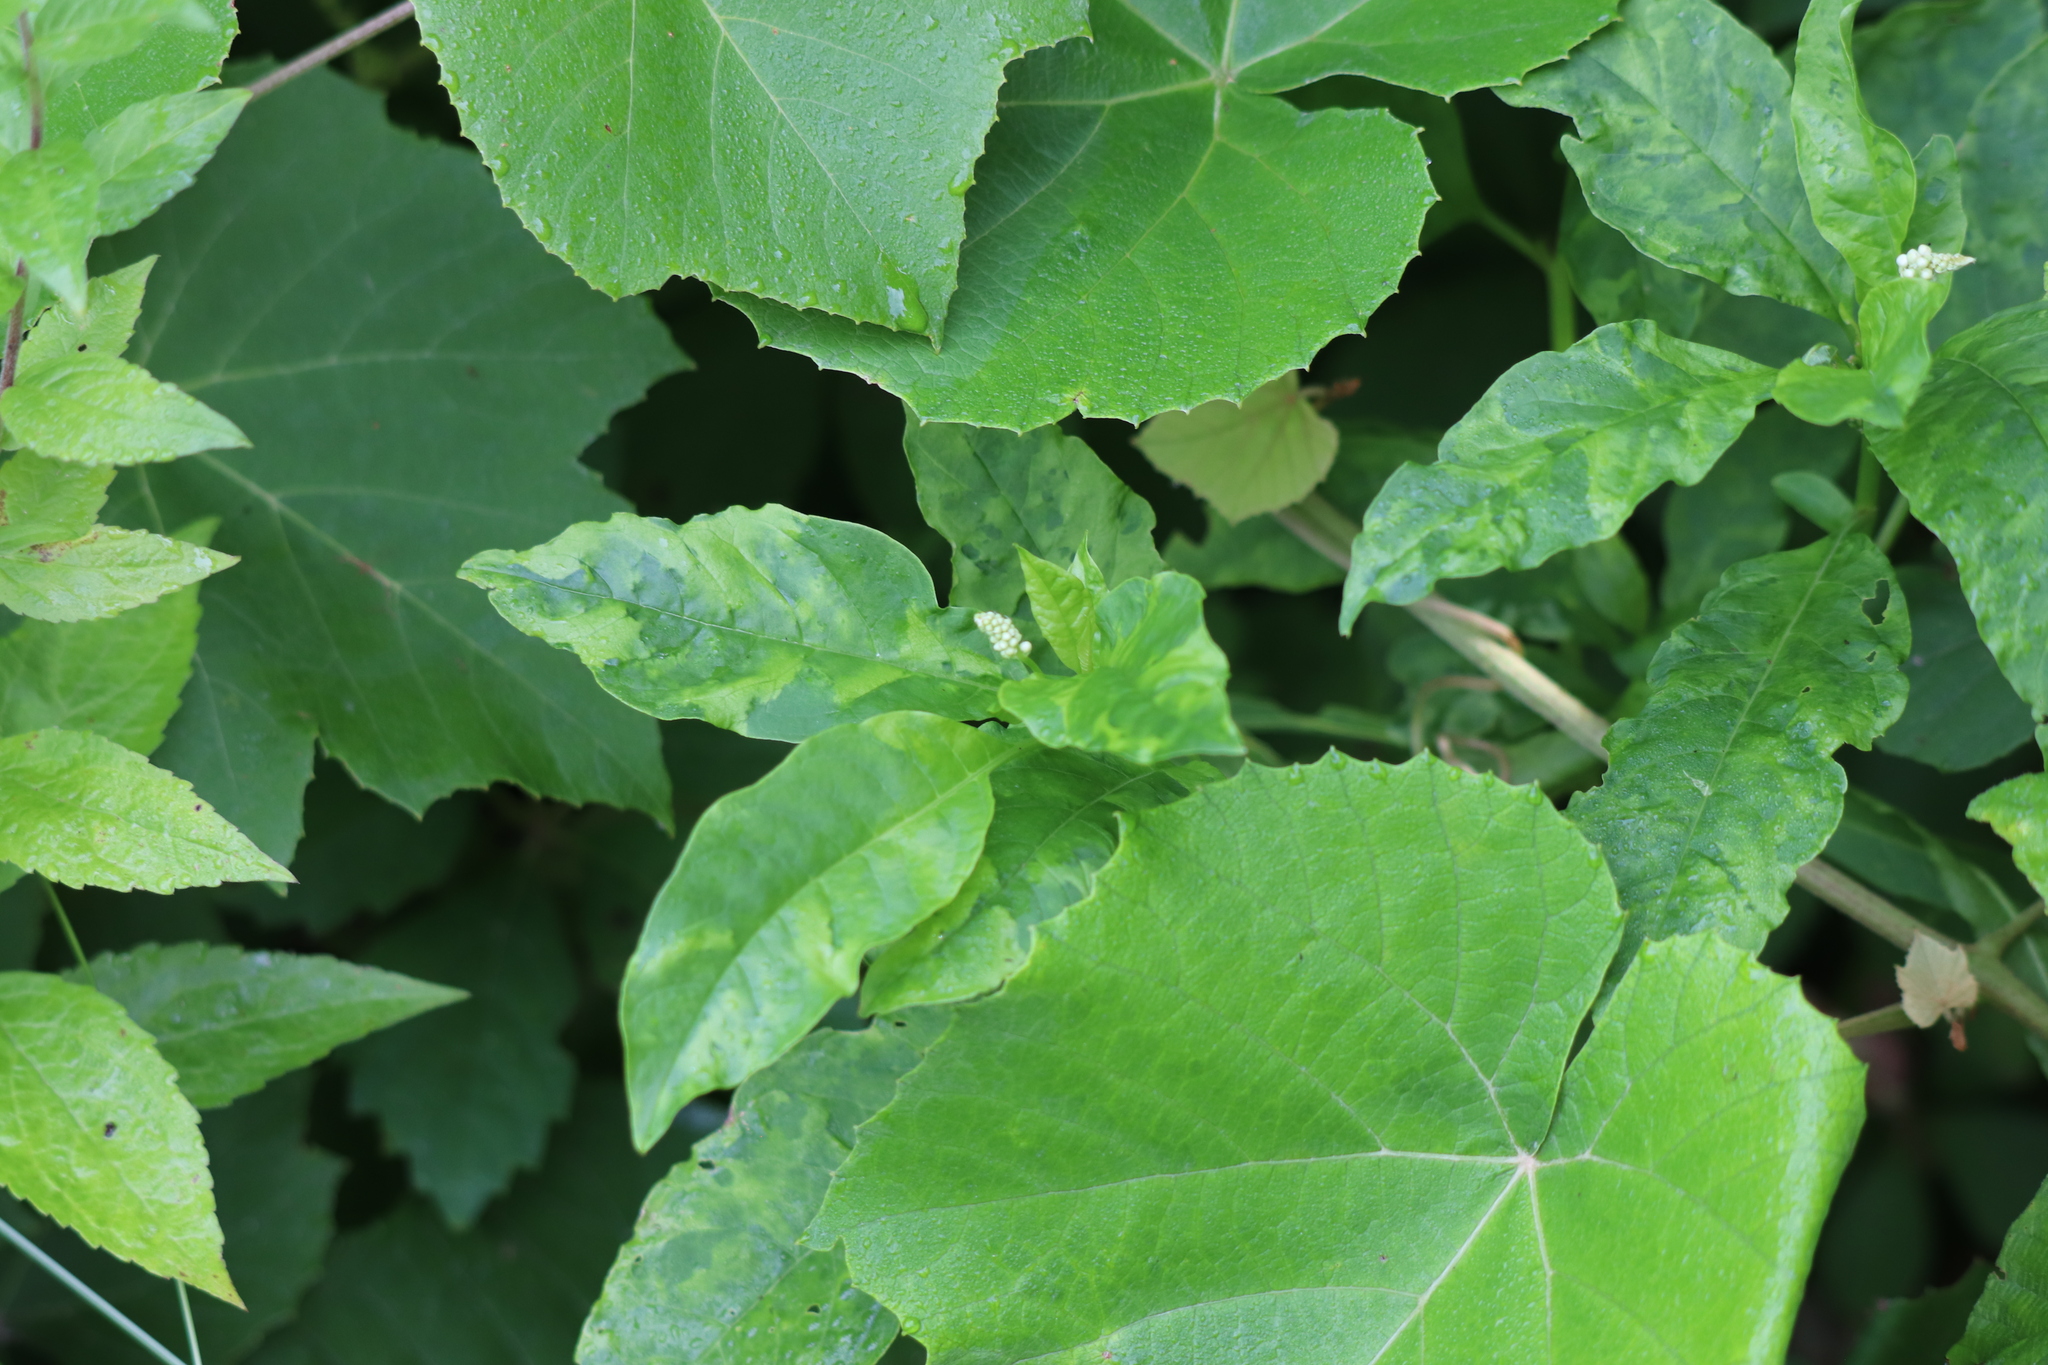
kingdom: Viruses
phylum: Pisuviricota
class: Stelpaviricetes
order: Patatavirales
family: Potyviridae
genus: Potyvirus
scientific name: Potyvirus Pokeweed mosaic virus
